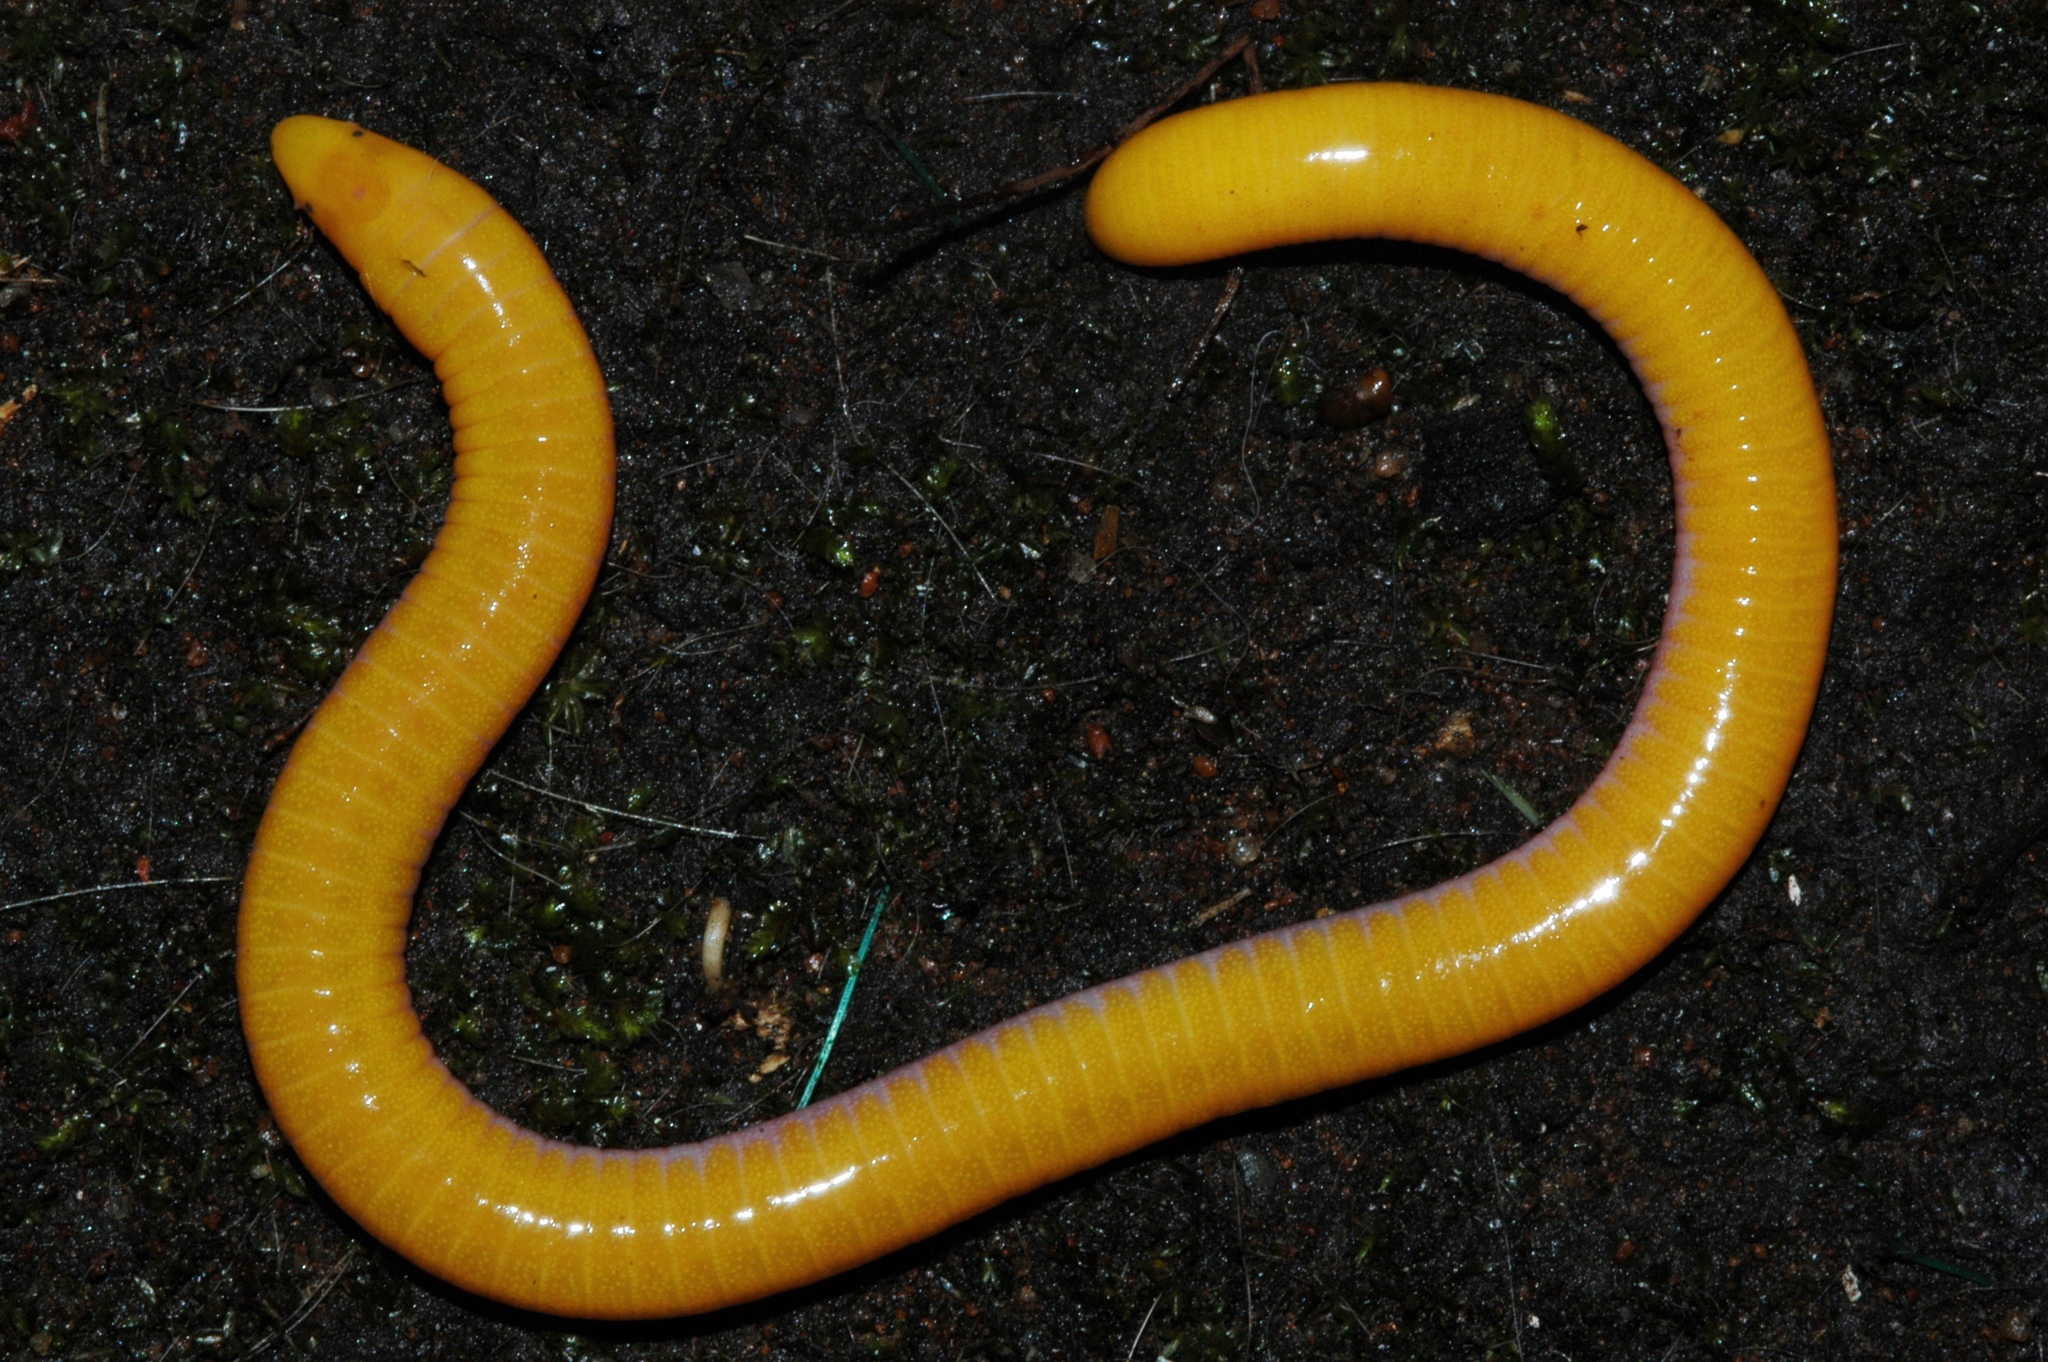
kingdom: Animalia
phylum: Chordata
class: Amphibia
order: Gymnophiona
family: Dermophiidae
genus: Schistometopum
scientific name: Schistometopum thomense
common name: Aqua ize caecilian
